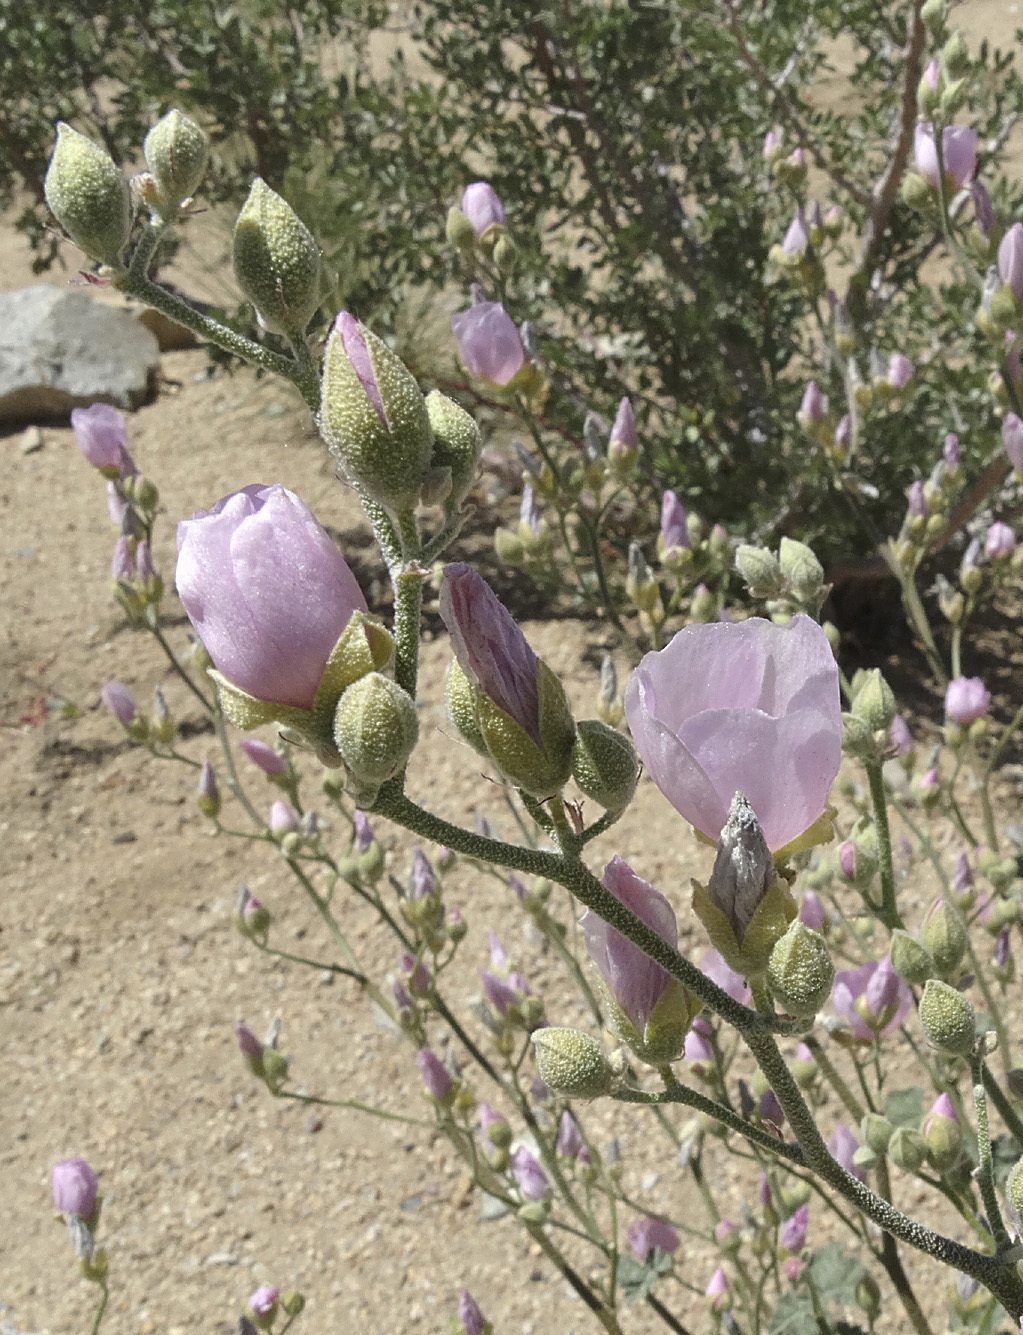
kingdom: Plantae
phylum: Tracheophyta
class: Magnoliopsida
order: Malvales
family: Malvaceae
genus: Sphaeralcea
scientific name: Sphaeralcea ambigua
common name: Apricot globe-mallow
